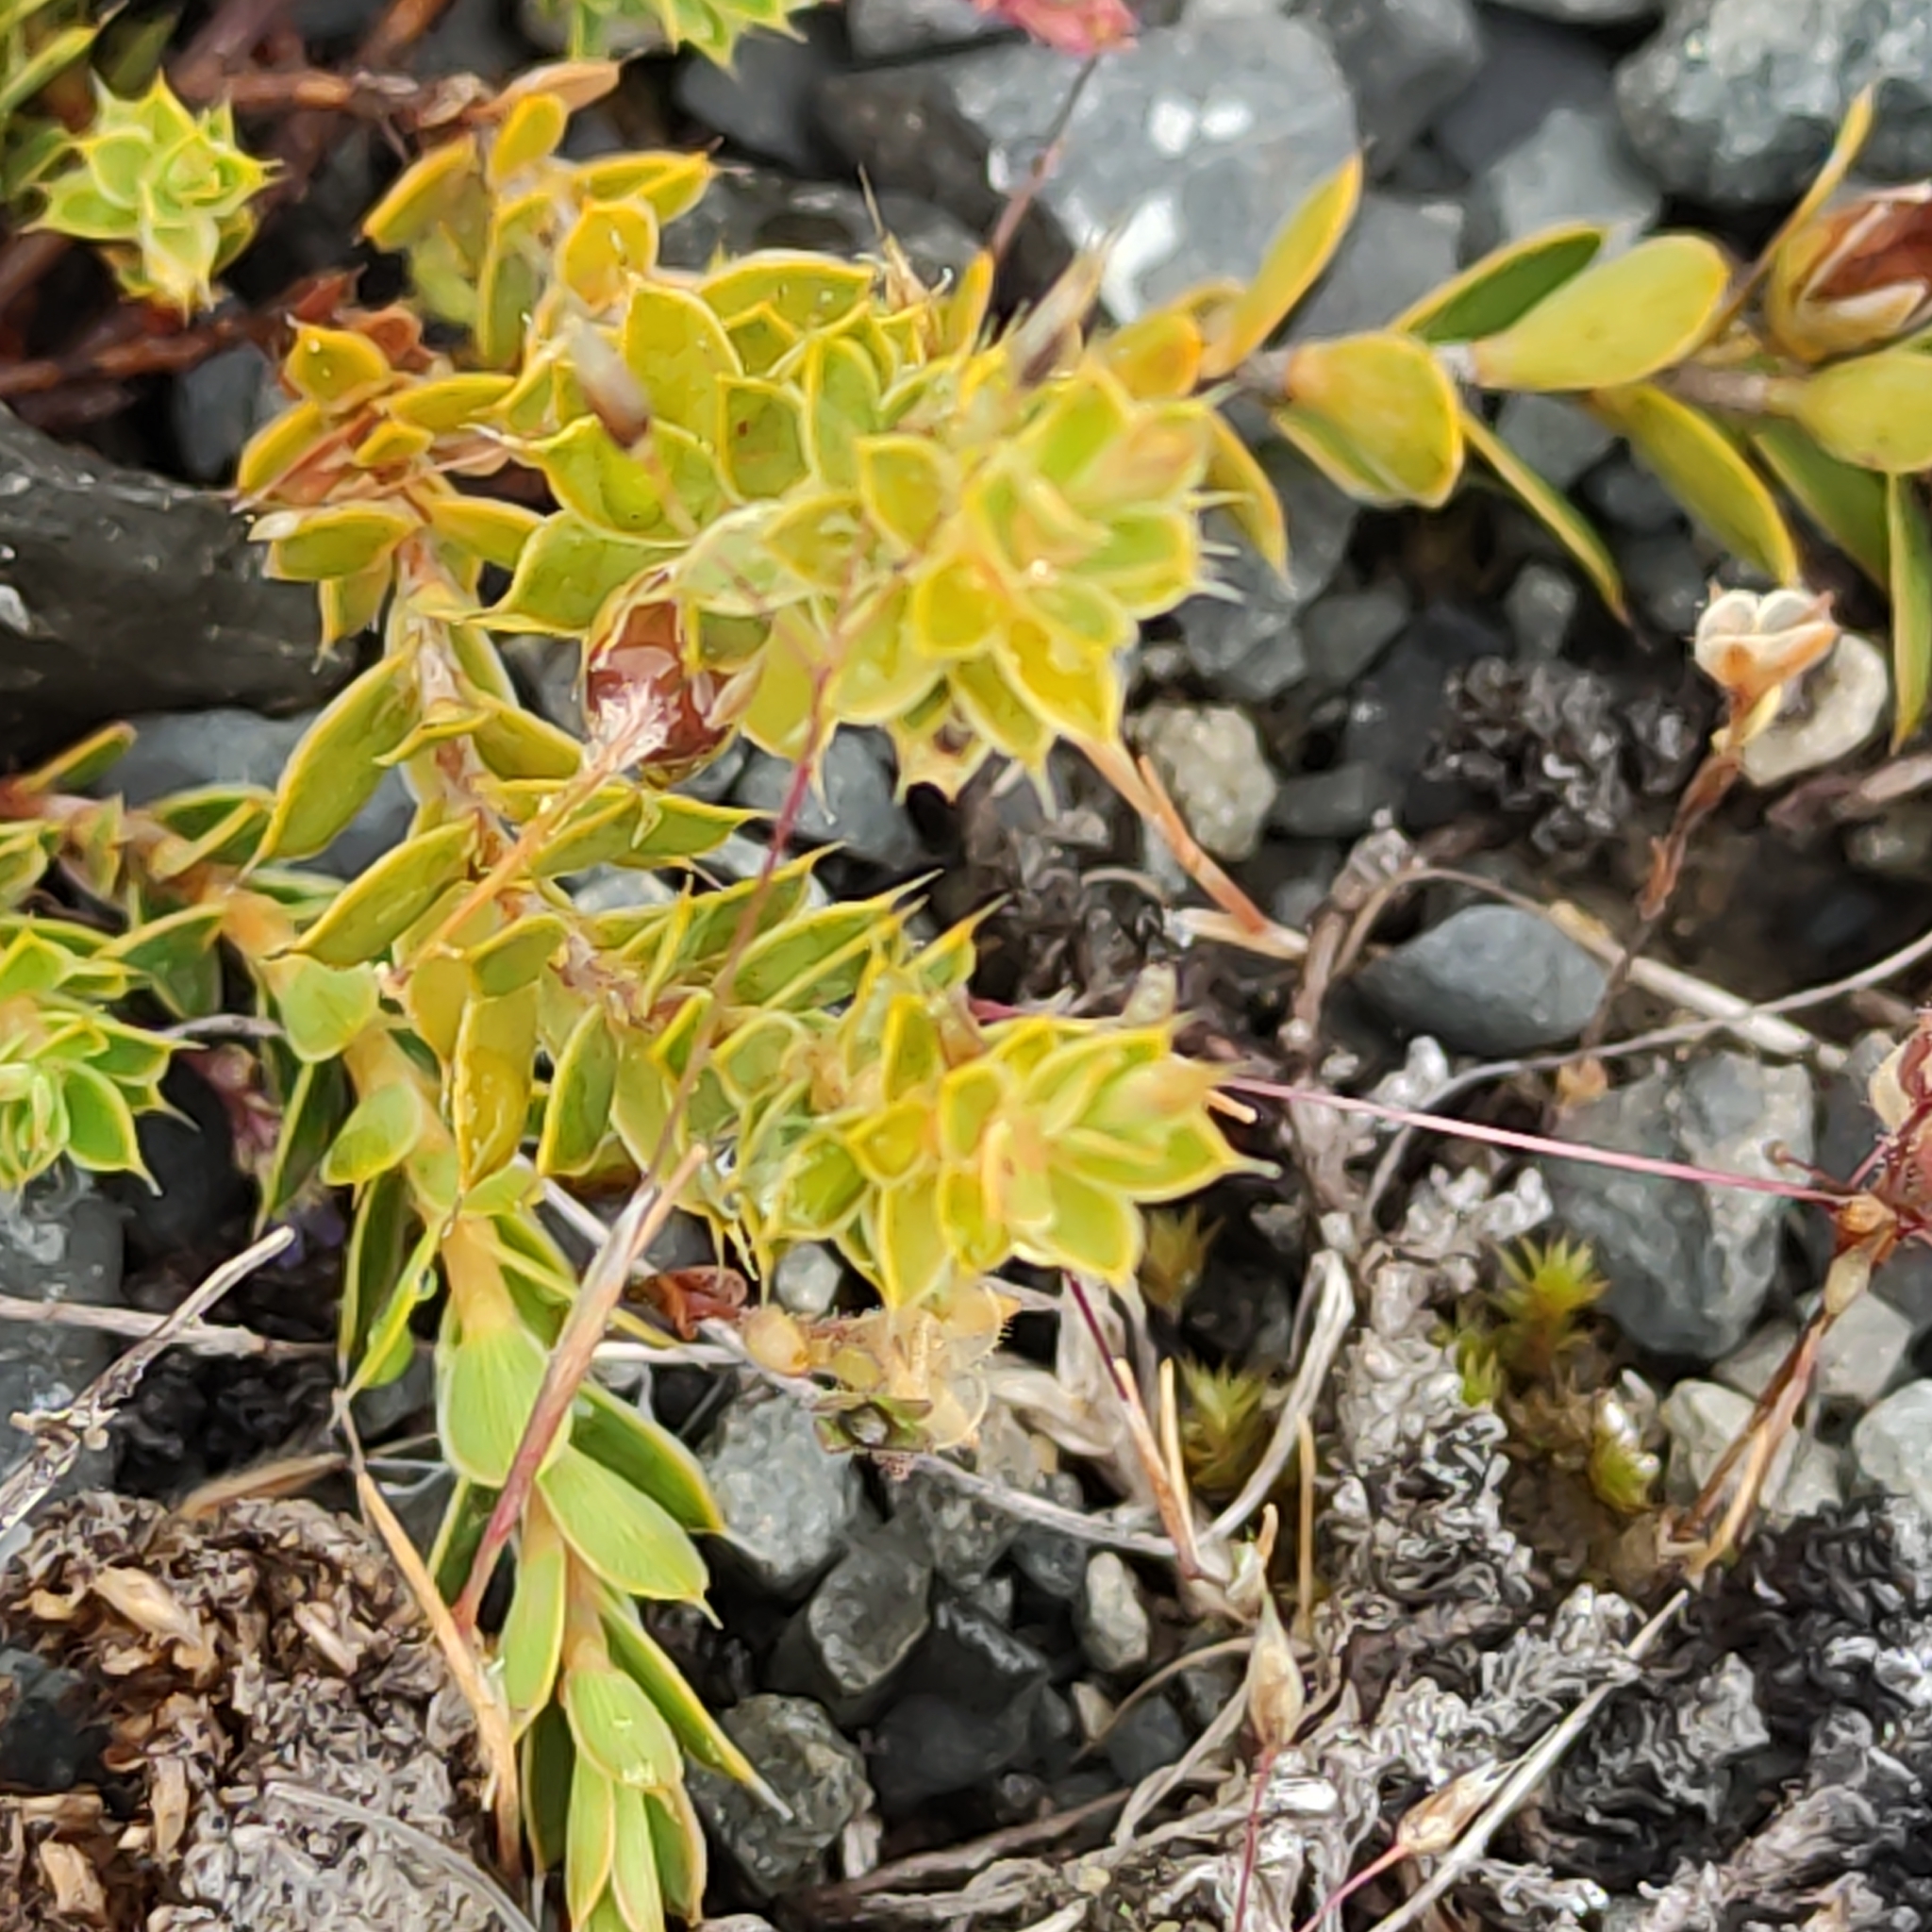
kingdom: Plantae
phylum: Tracheophyta
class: Magnoliopsida
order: Ericales
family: Ericaceae
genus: Styphelia
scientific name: Styphelia nesophila
